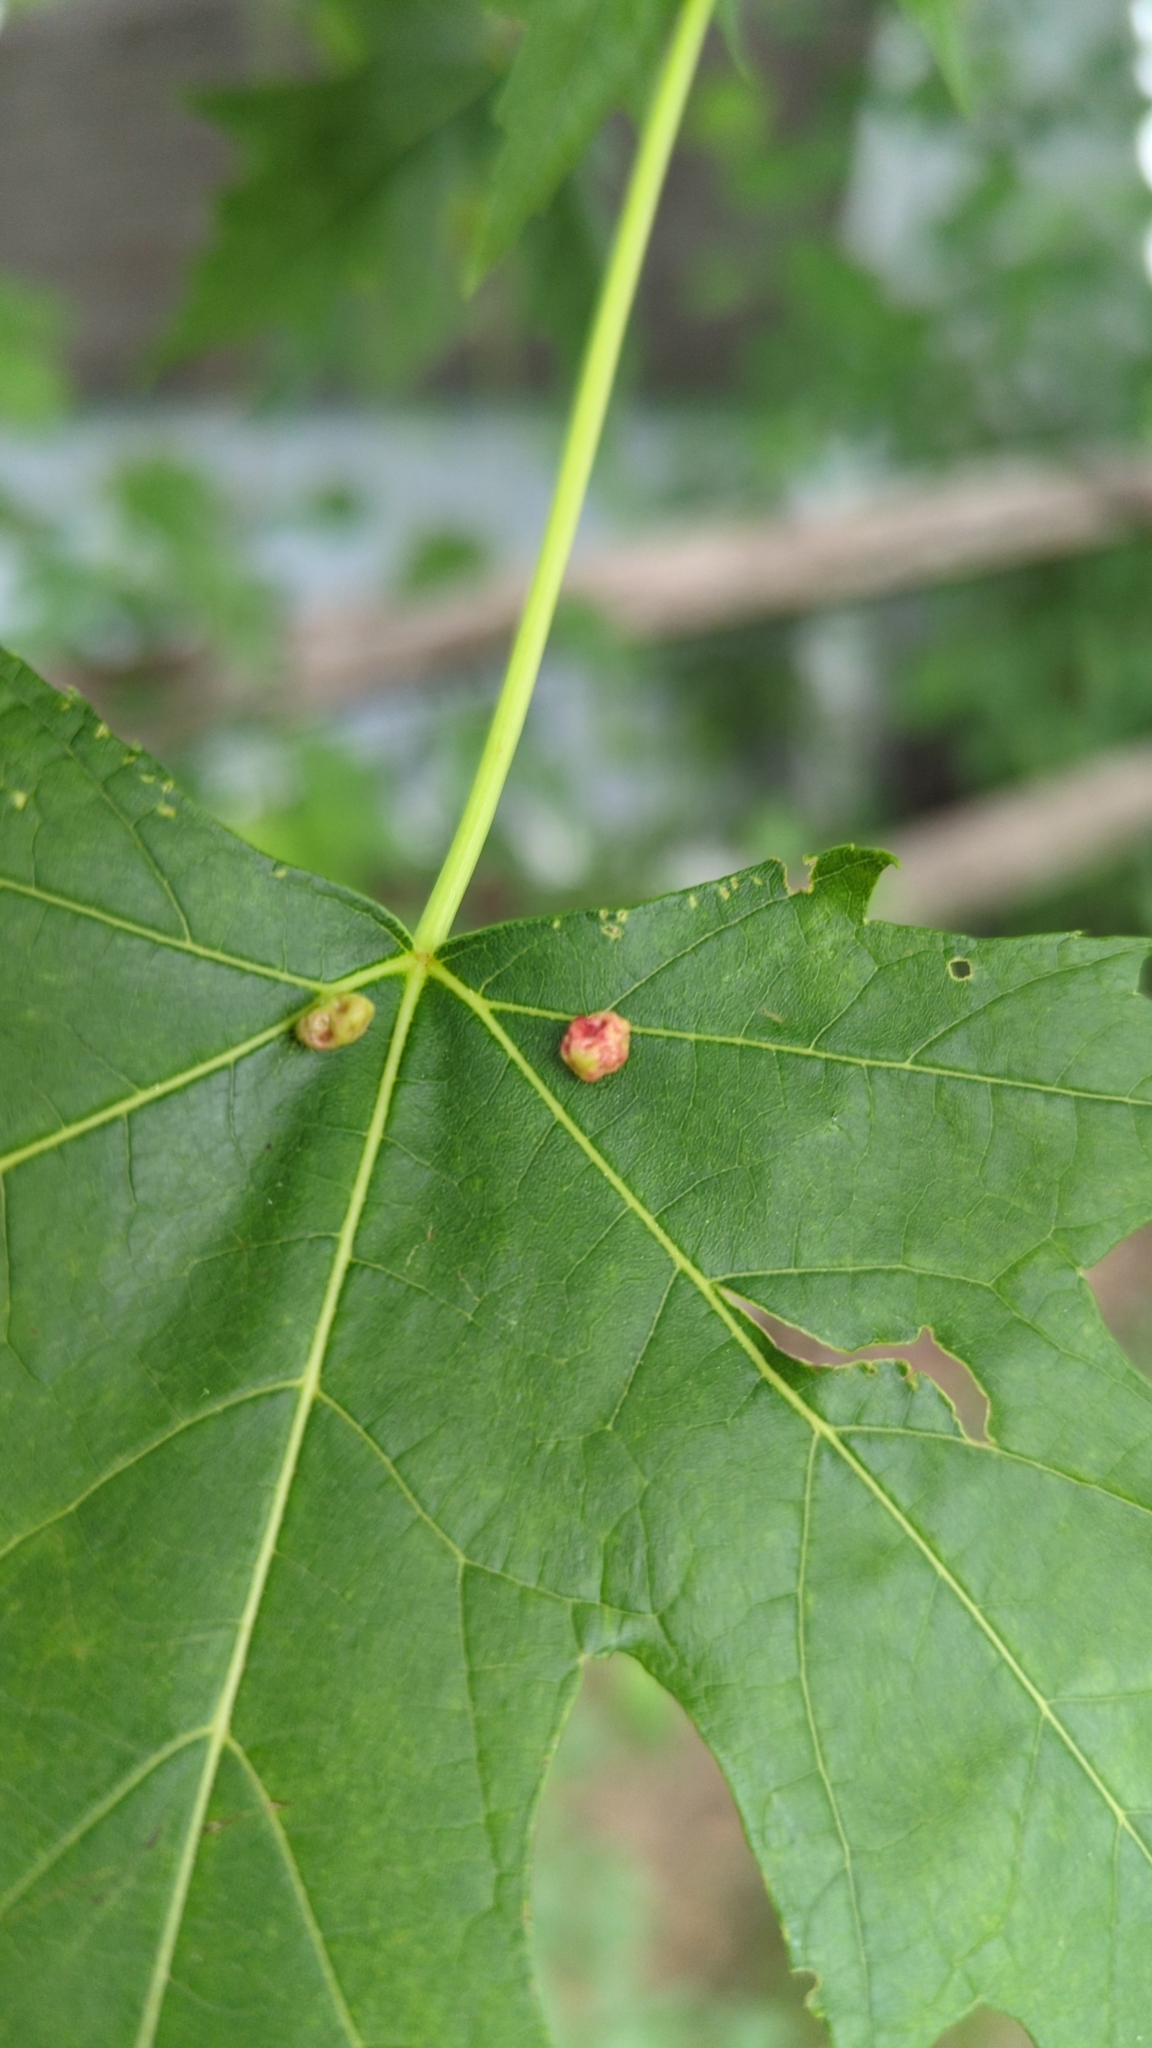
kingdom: Animalia
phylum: Arthropoda
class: Arachnida
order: Trombidiformes
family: Eriophyidae
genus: Vasates
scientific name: Vasates quadripedes
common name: Maple bladder gall mite
